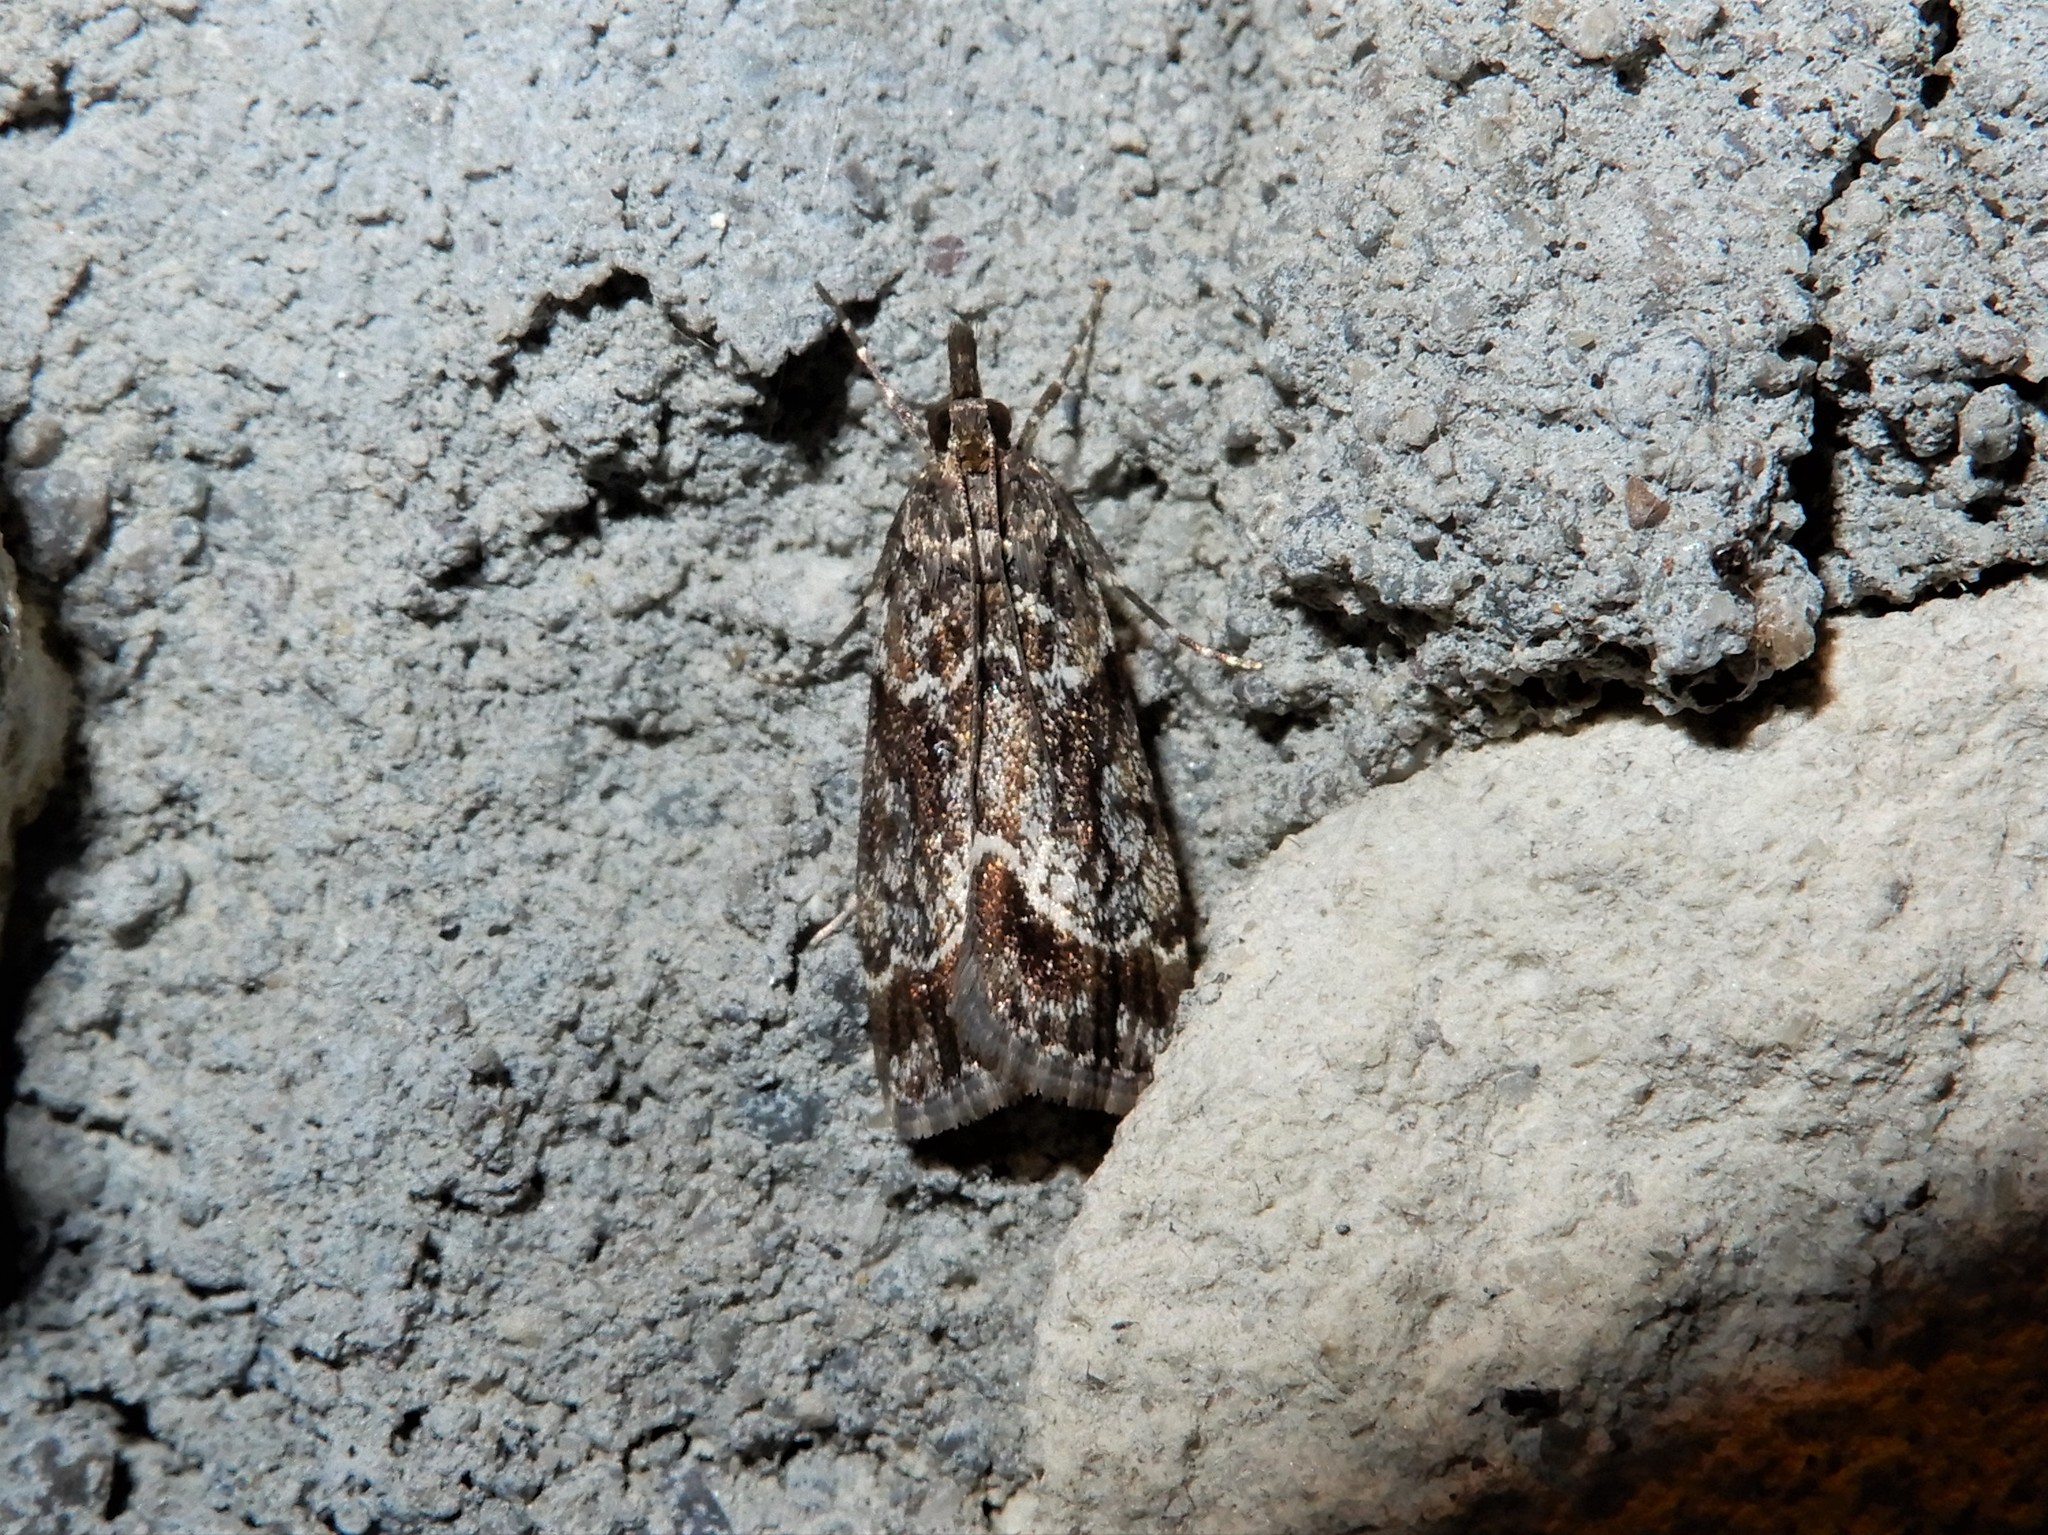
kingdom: Animalia
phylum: Arthropoda
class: Insecta
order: Lepidoptera
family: Crambidae
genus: Eudonia
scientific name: Eudonia legnota
